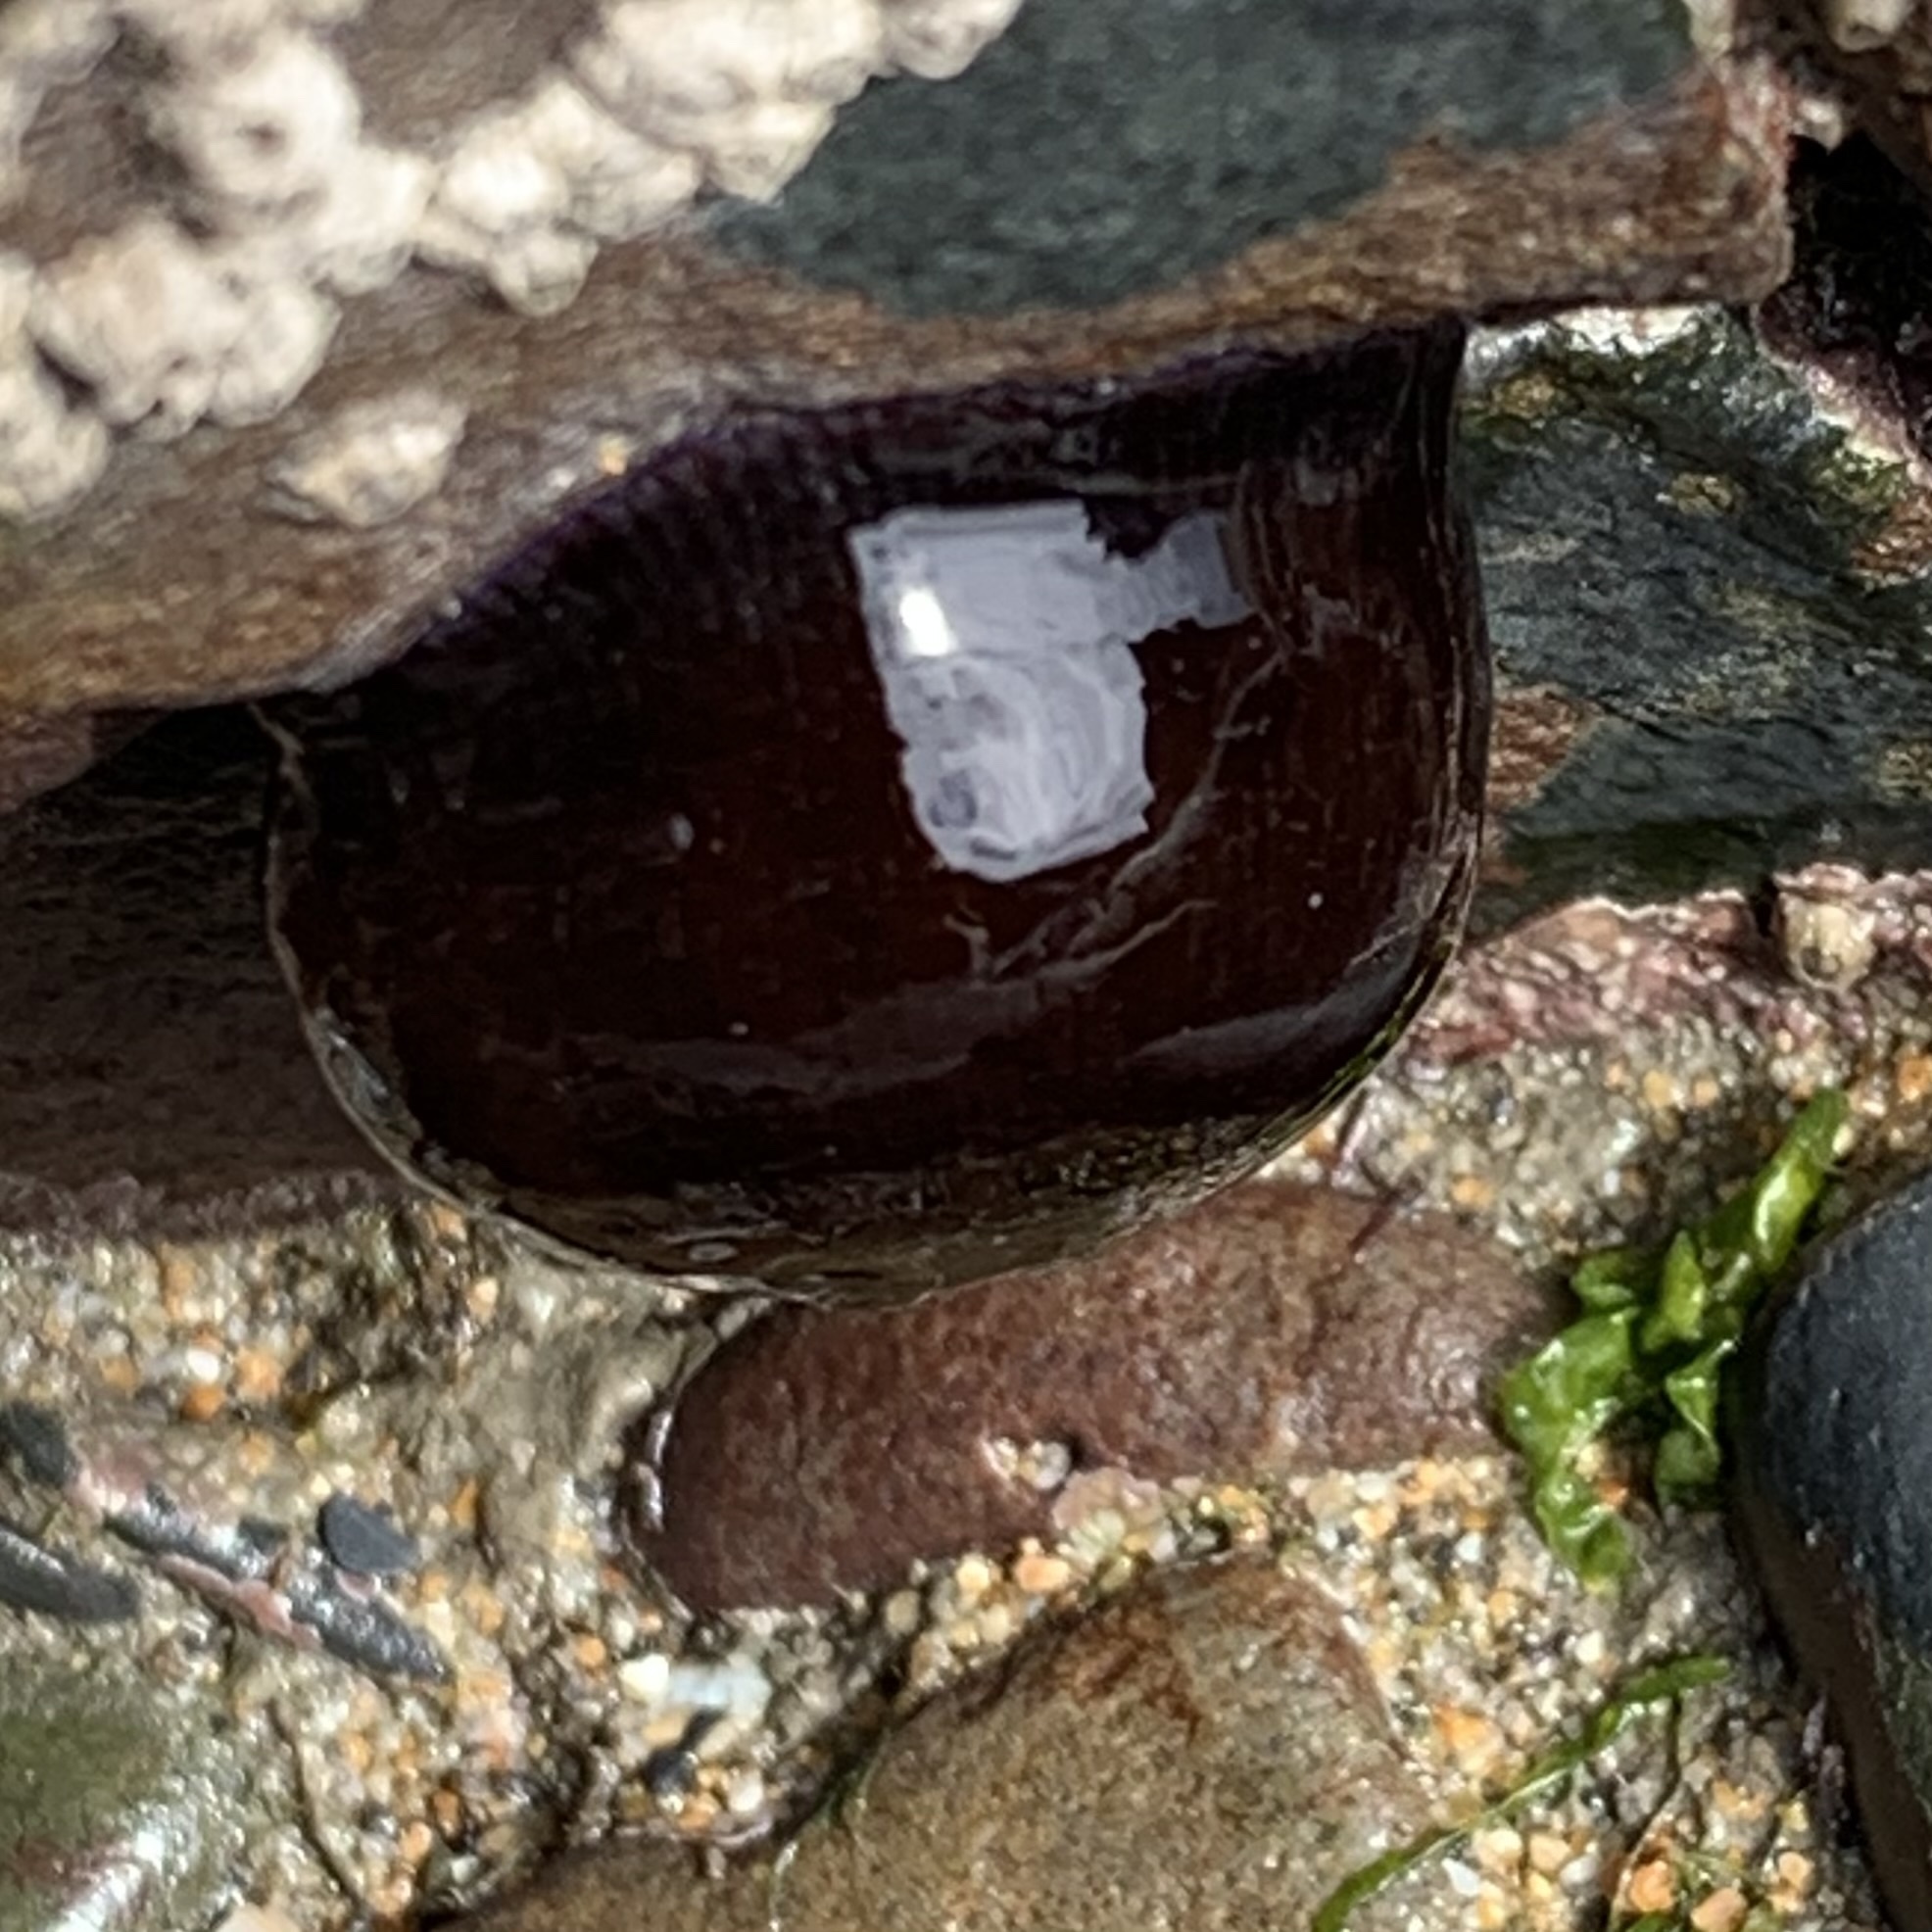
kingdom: Animalia
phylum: Cnidaria
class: Anthozoa
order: Actiniaria
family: Actiniidae
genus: Actinia
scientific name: Actinia equina
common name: Beadlet anemone
